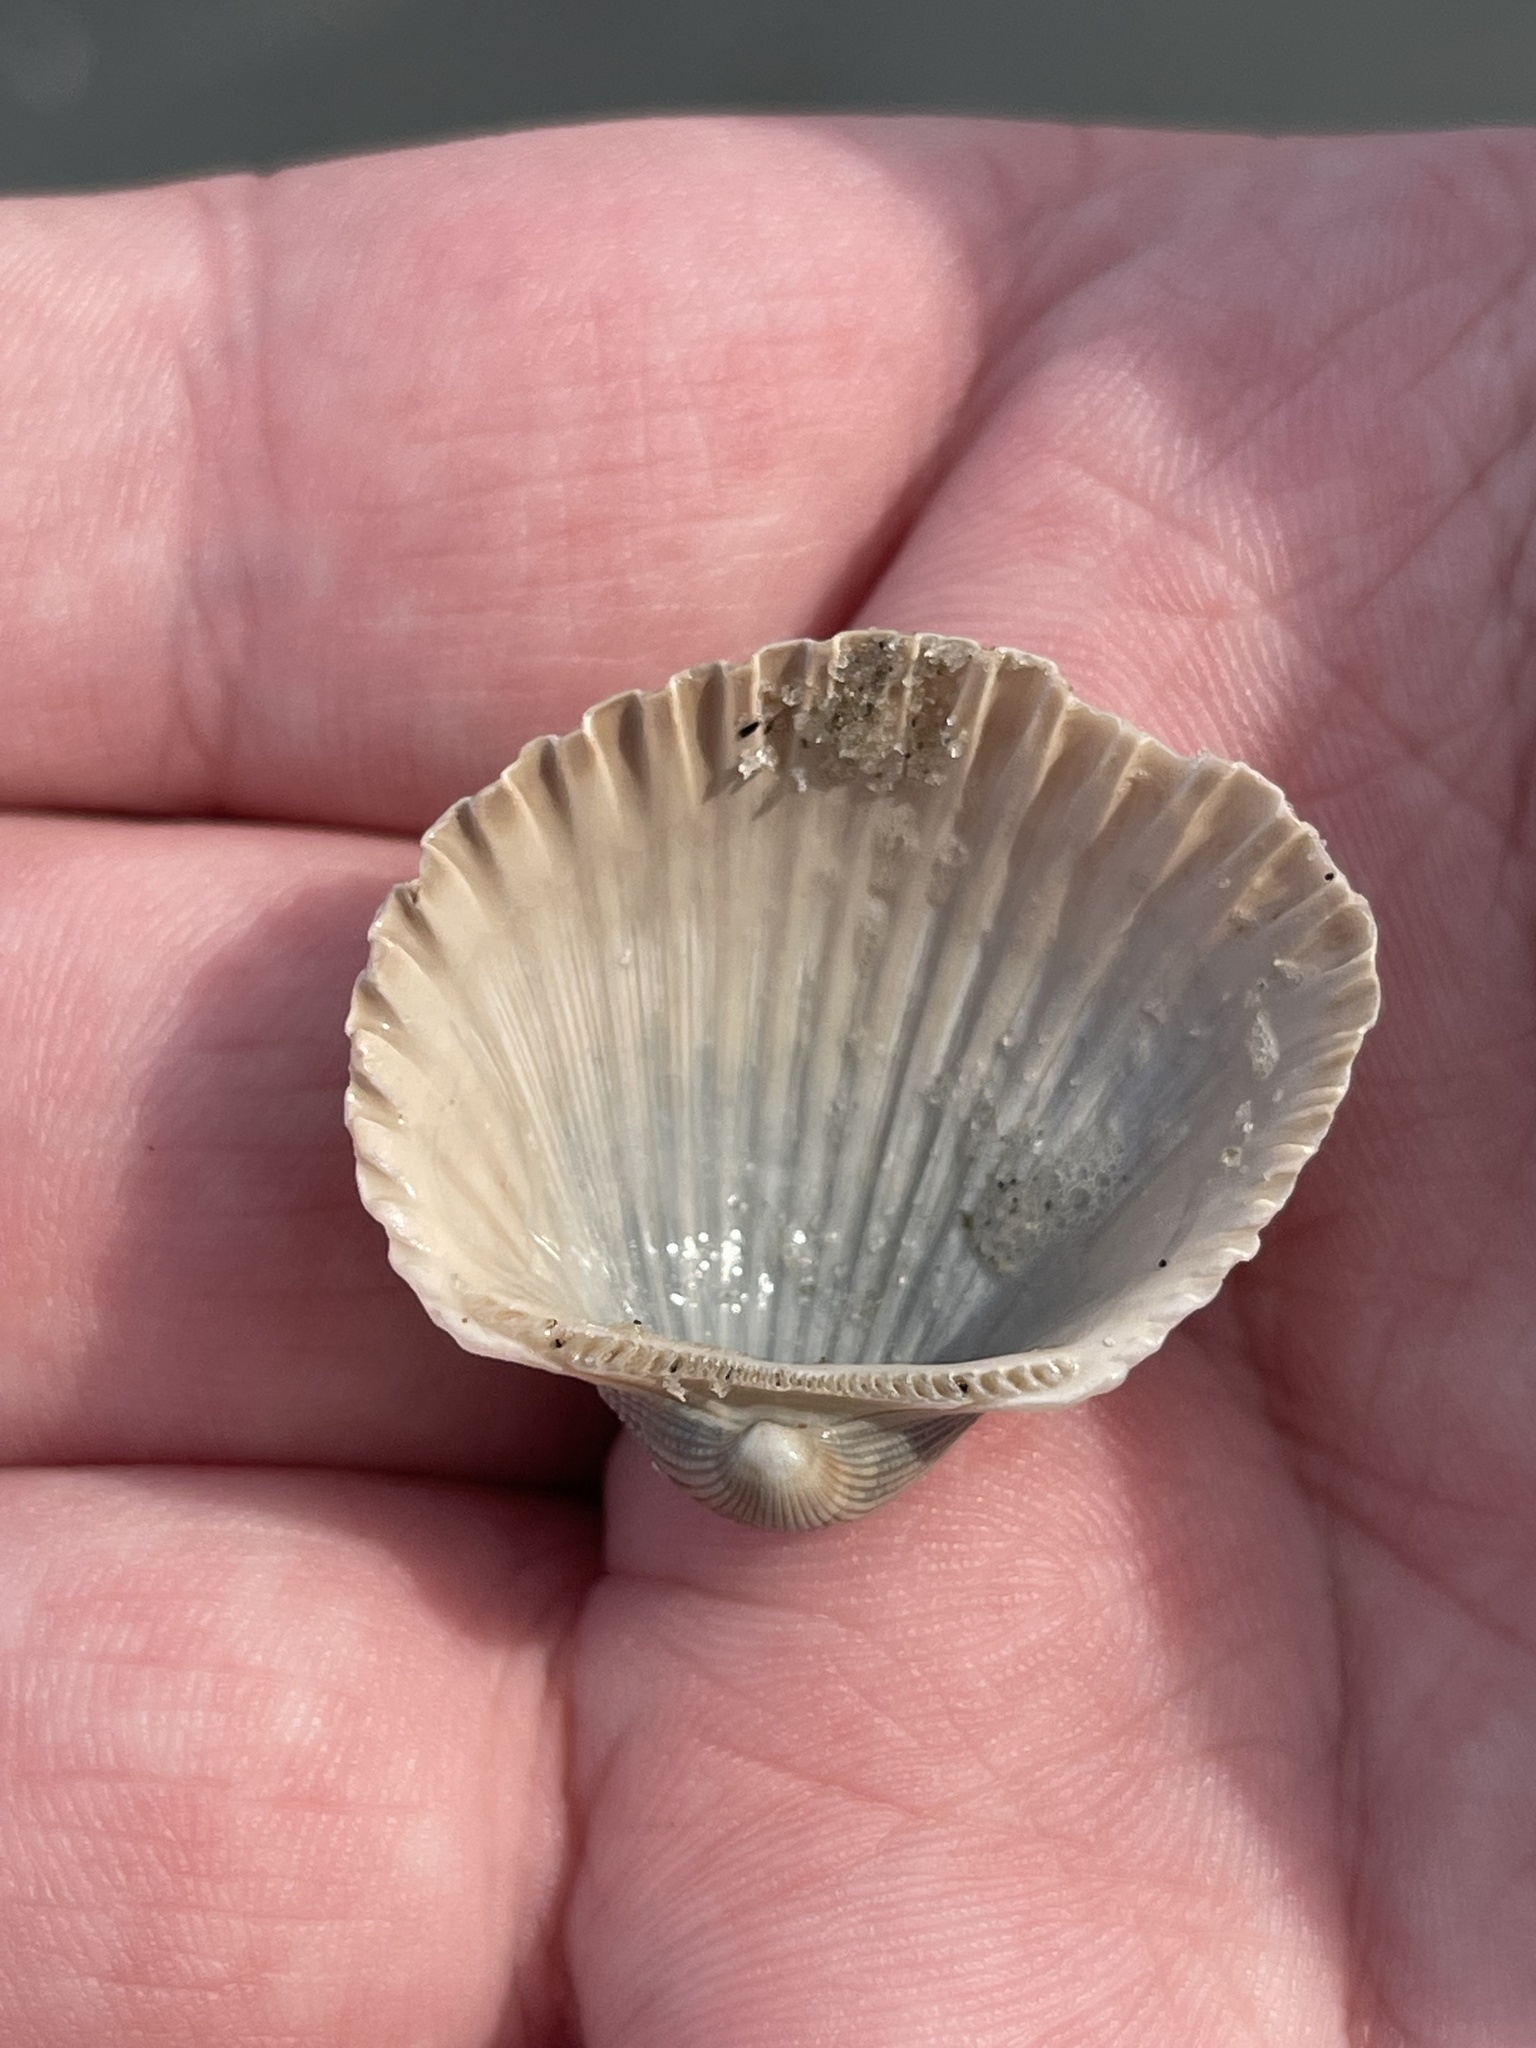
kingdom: Animalia
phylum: Mollusca
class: Bivalvia
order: Arcida
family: Arcidae
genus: Anadara
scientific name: Anadara brasiliana
